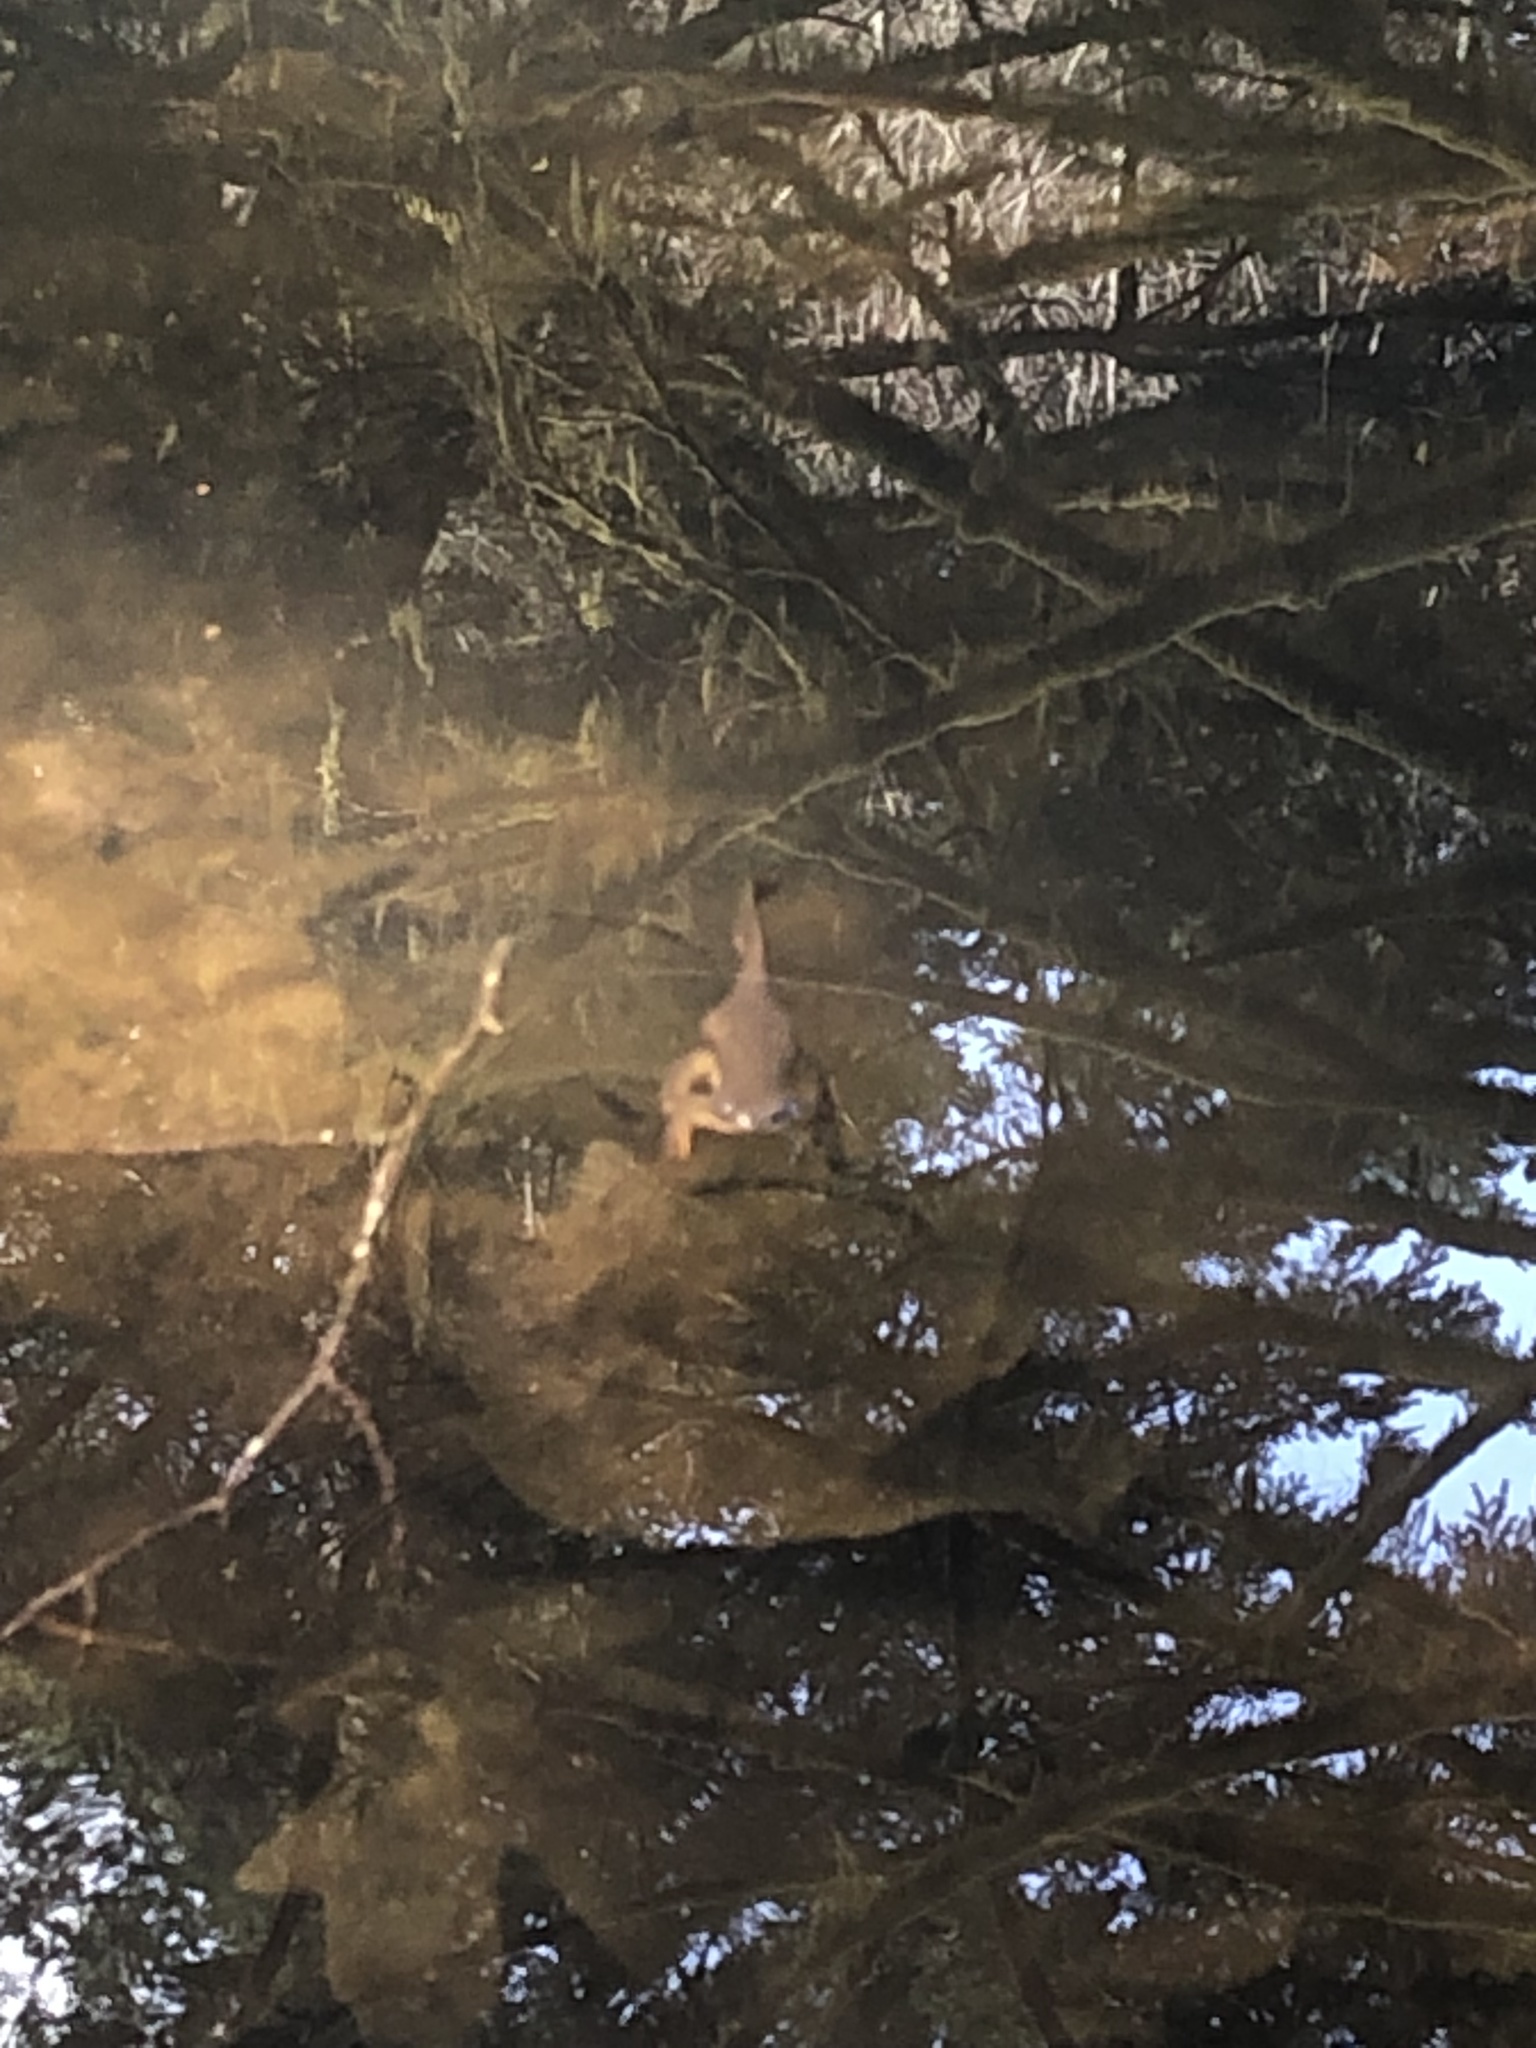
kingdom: Animalia
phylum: Chordata
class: Amphibia
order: Caudata
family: Salamandridae
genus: Taricha
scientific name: Taricha granulosa
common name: Roughskin newt
